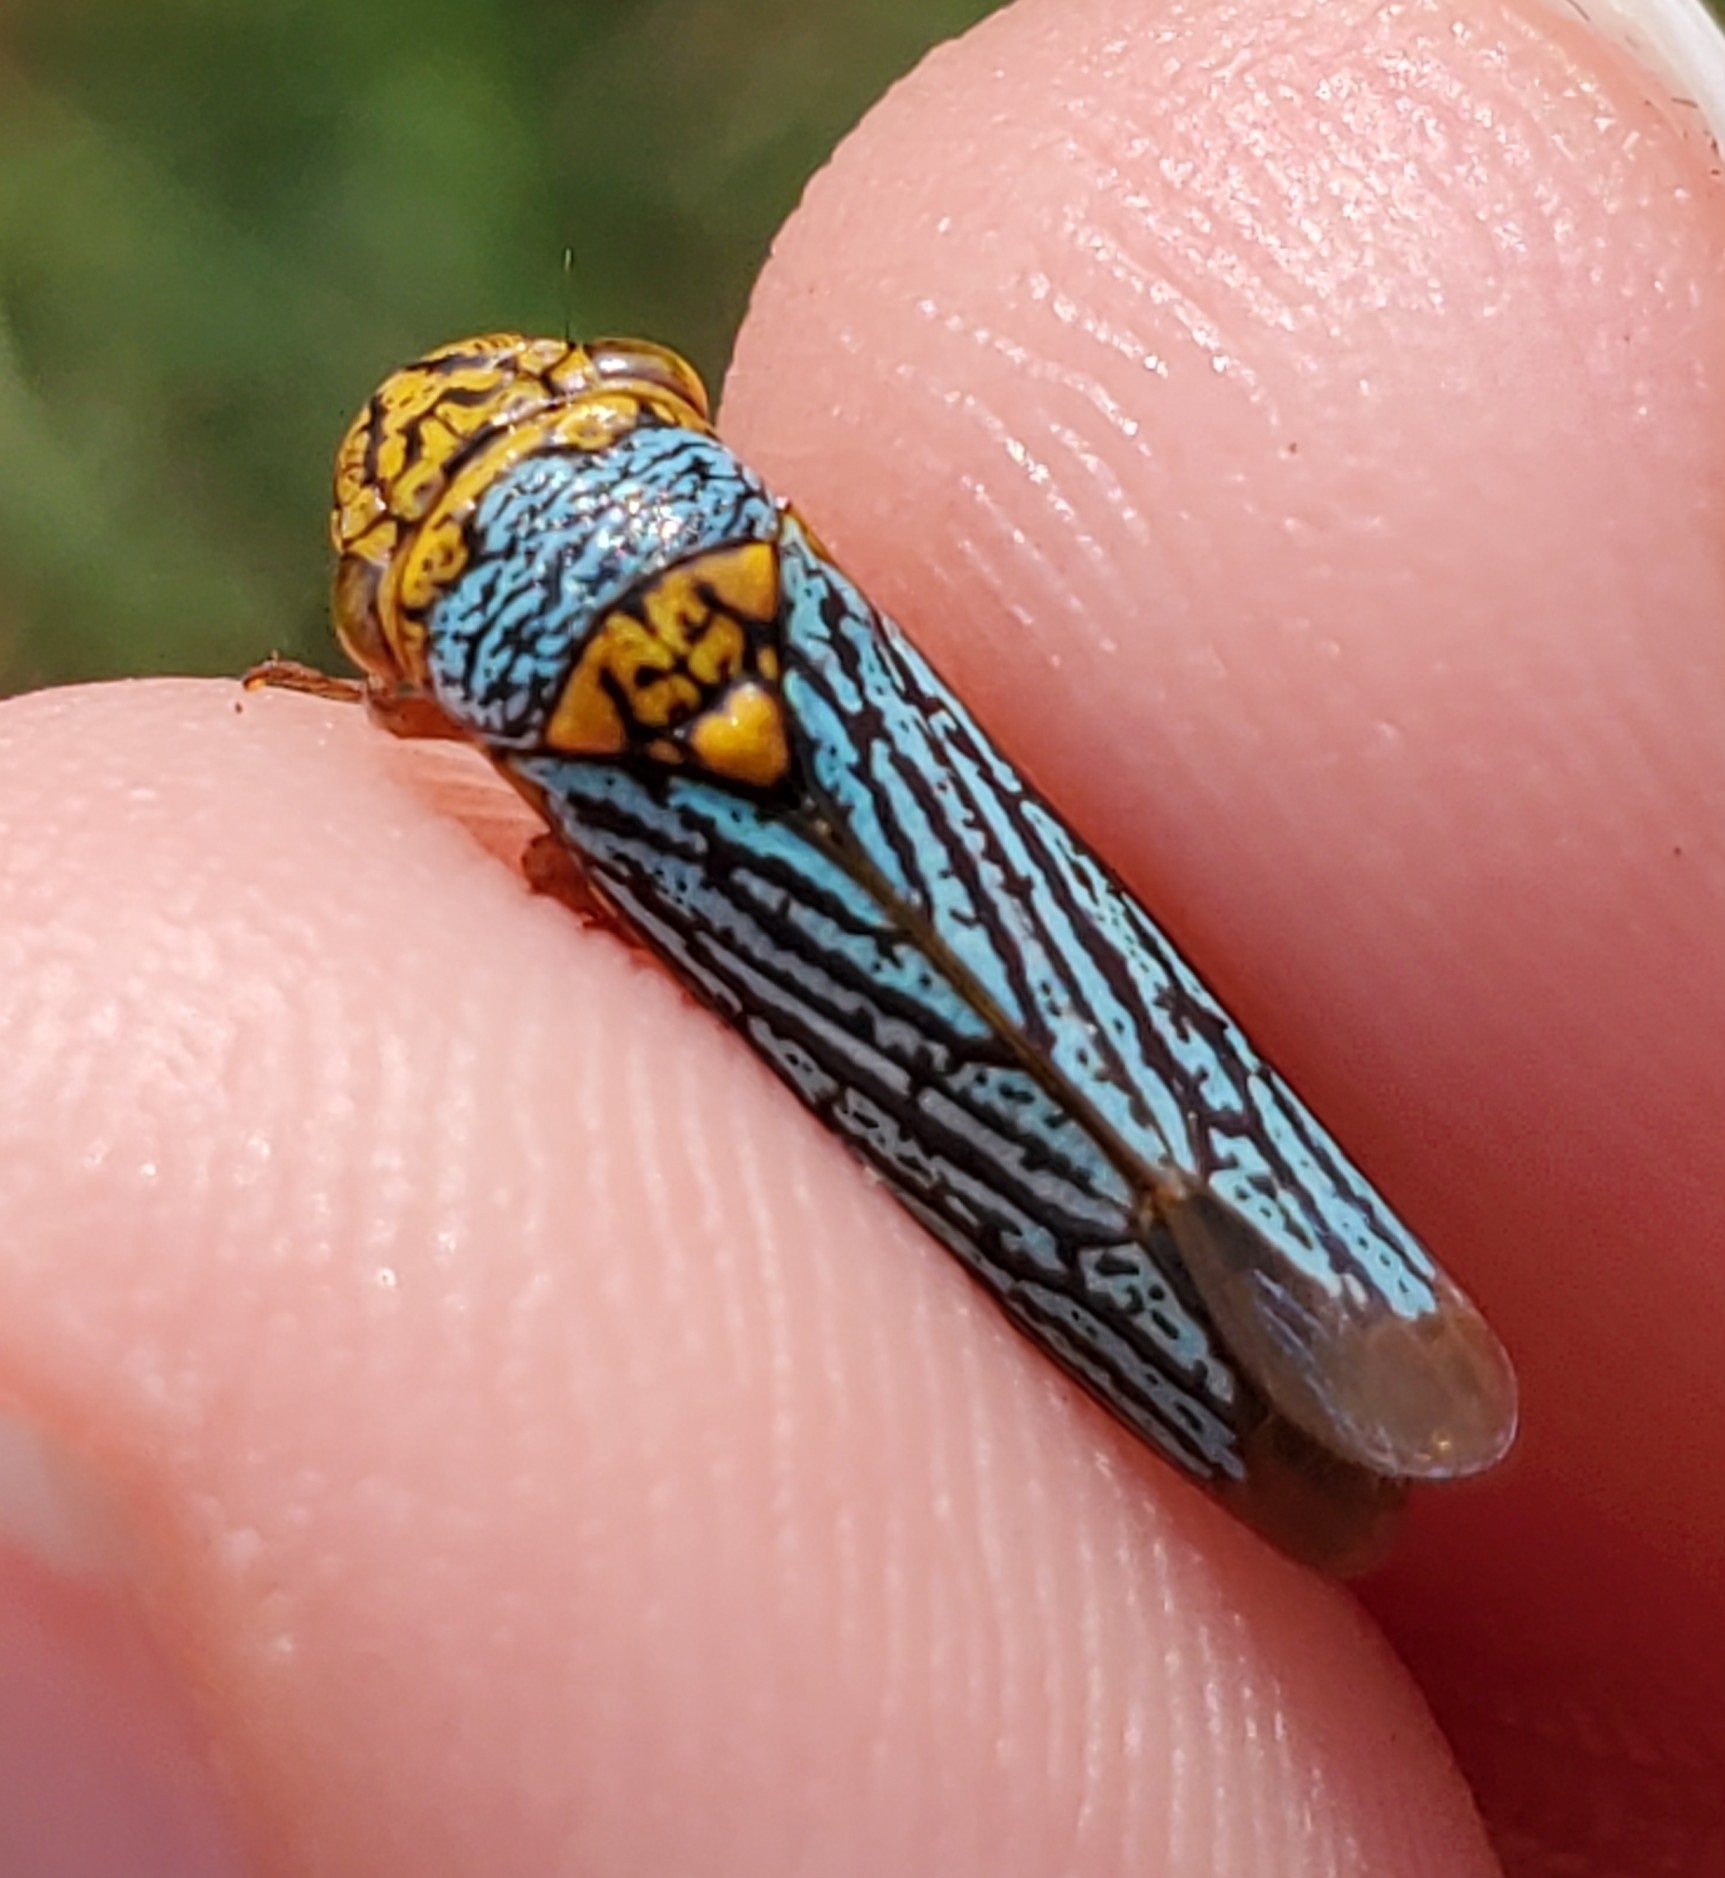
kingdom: Animalia
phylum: Arthropoda
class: Insecta
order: Hemiptera
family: Cicadellidae
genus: Oncometopia
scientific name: Oncometopia nigricans
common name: Black-winged sharpshooter
